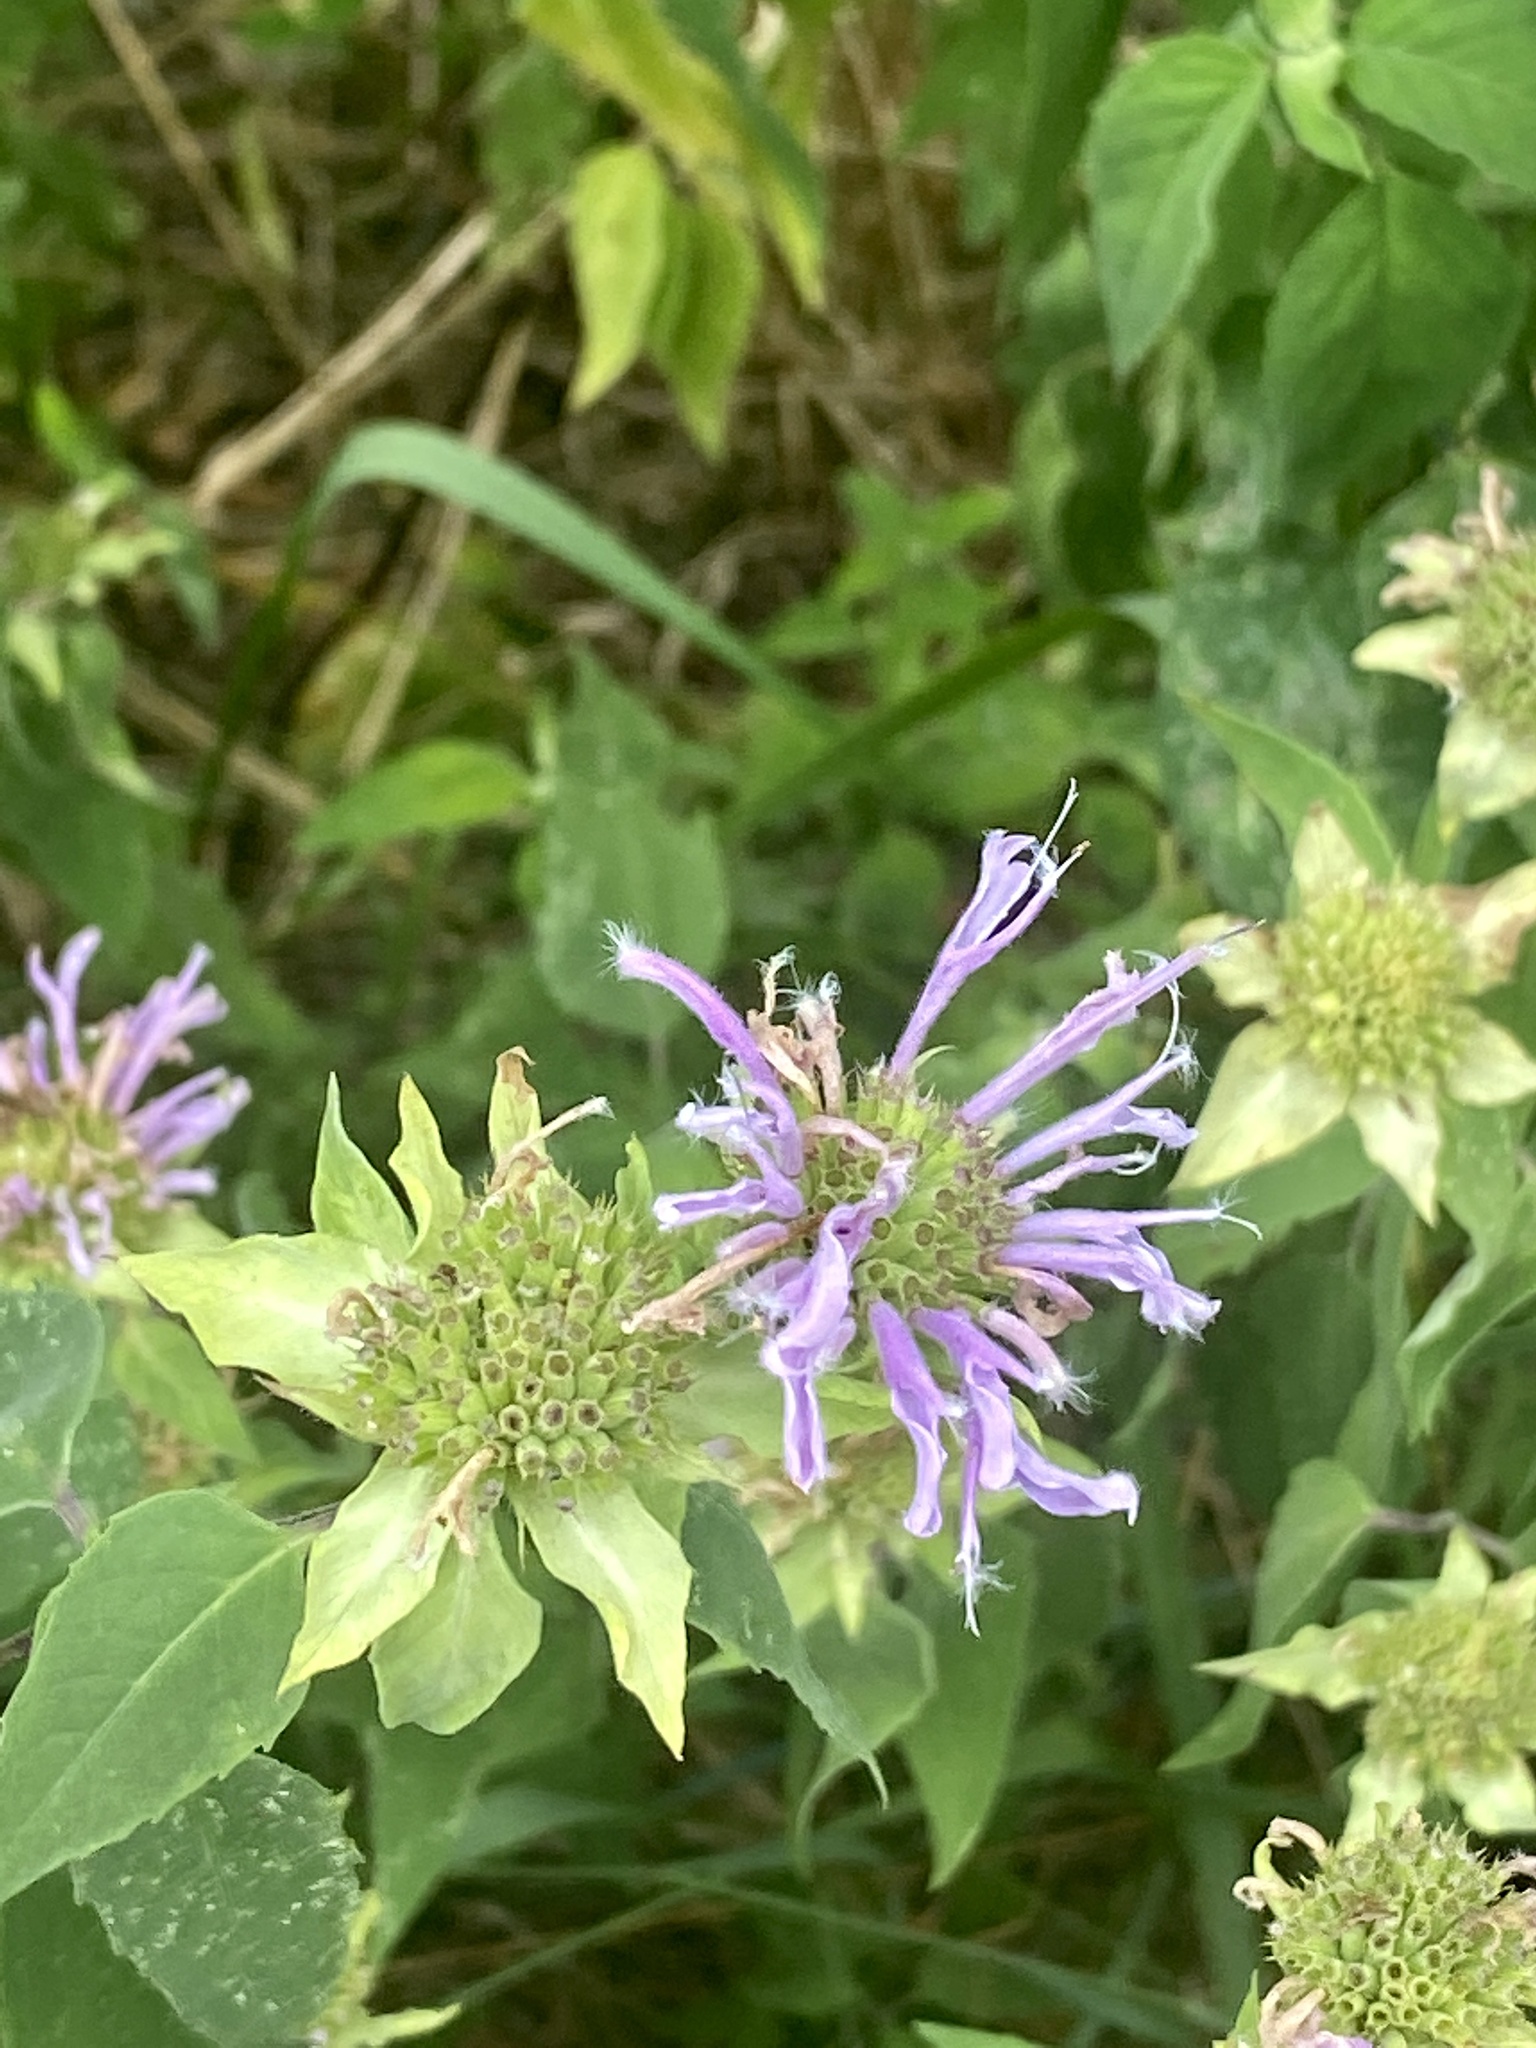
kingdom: Plantae
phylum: Tracheophyta
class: Magnoliopsida
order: Lamiales
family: Lamiaceae
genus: Monarda
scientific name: Monarda fistulosa
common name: Purple beebalm
